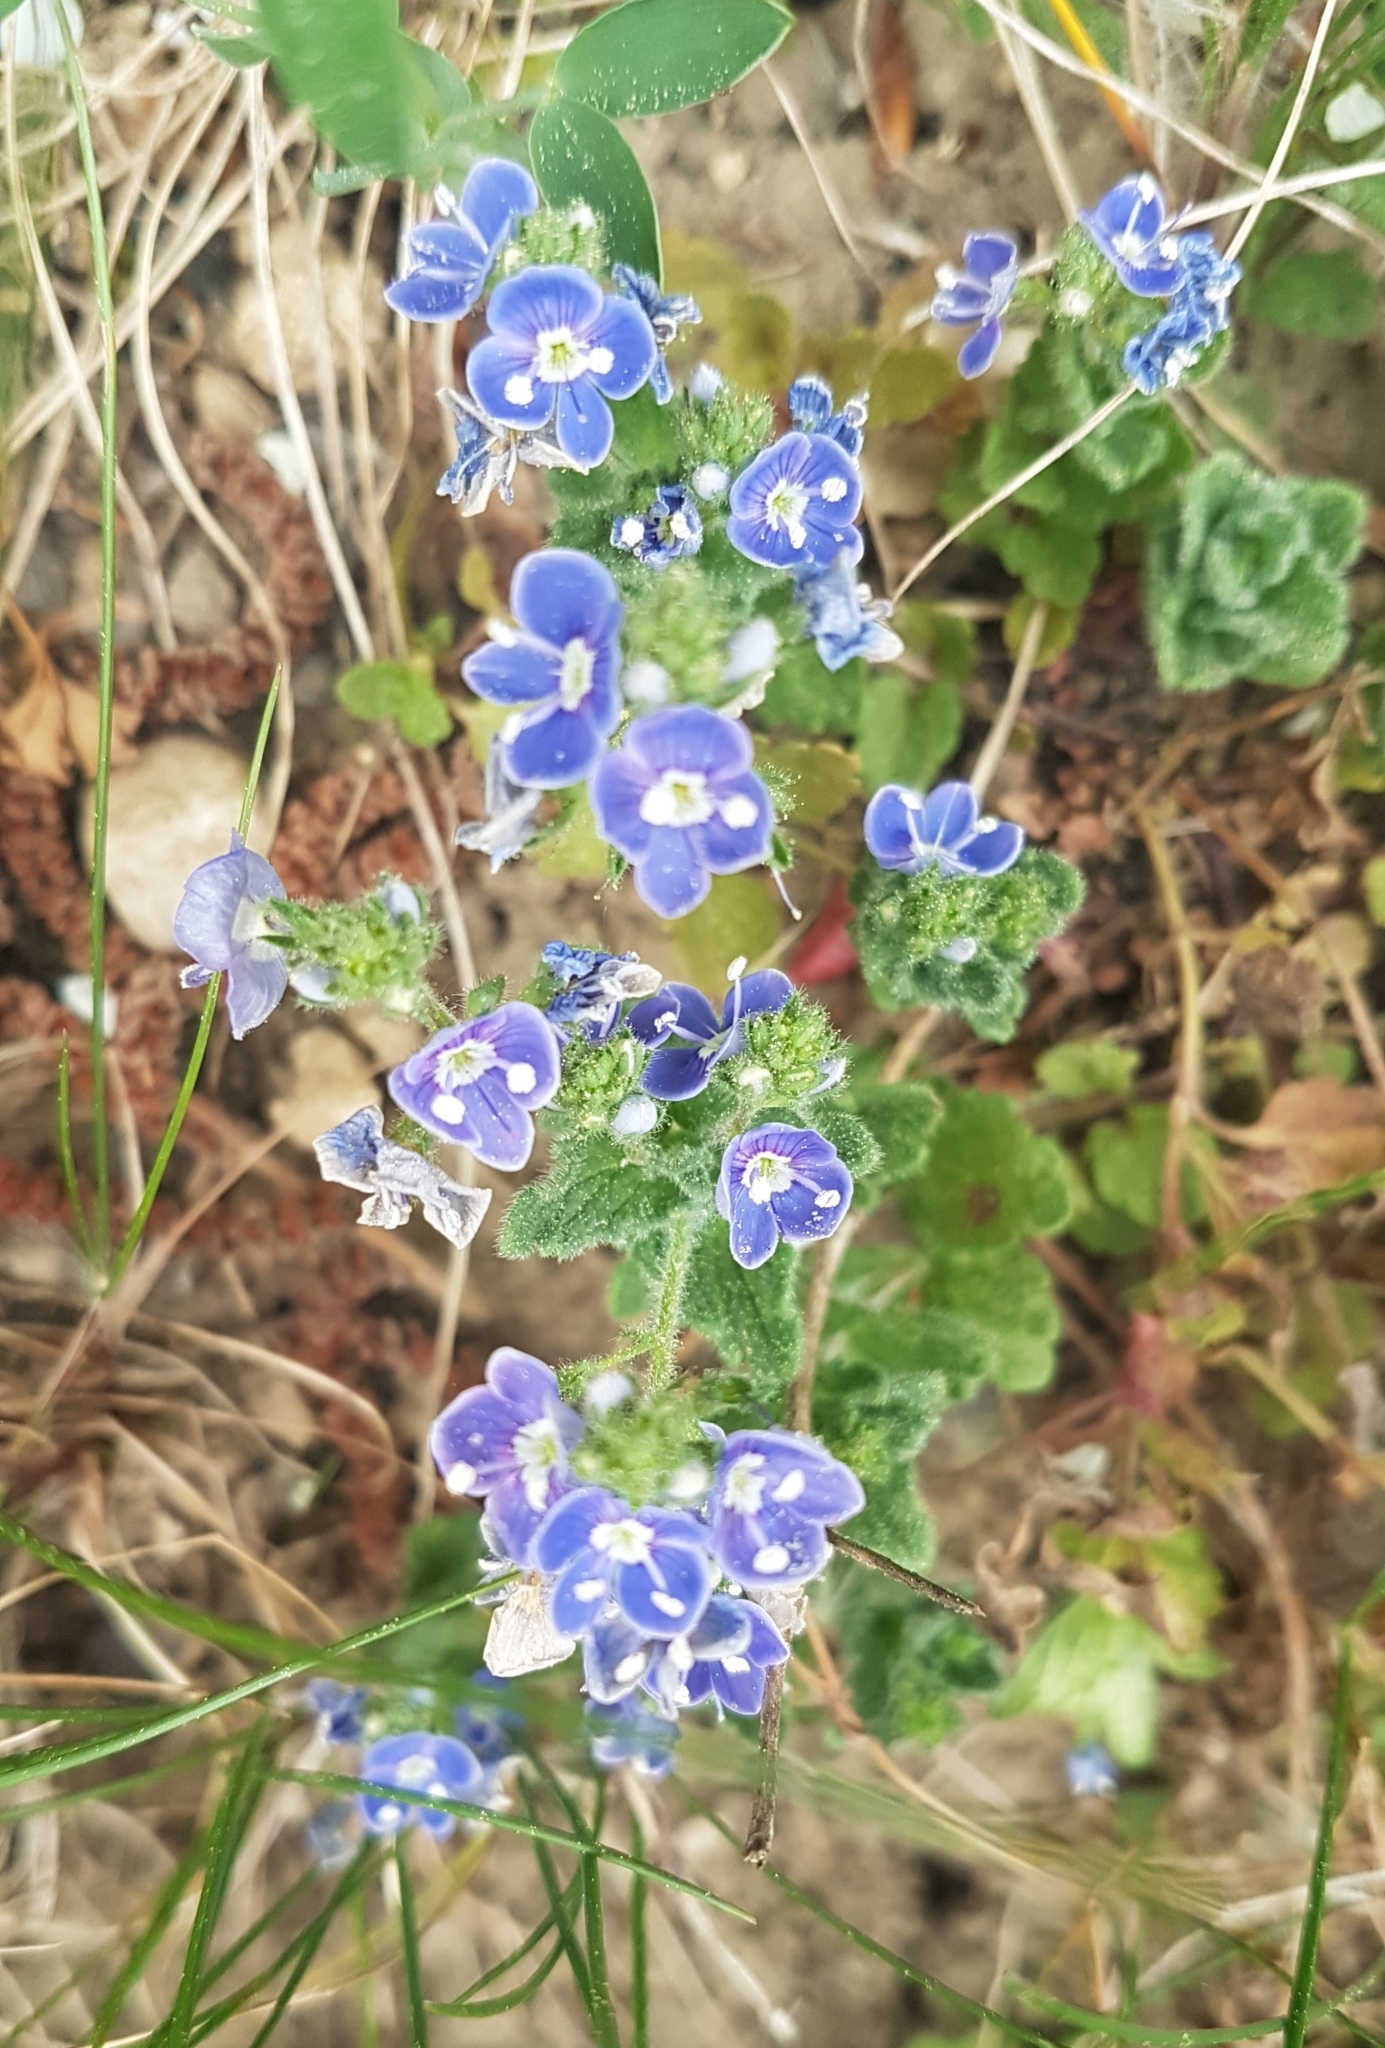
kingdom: Plantae
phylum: Tracheophyta
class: Magnoliopsida
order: Lamiales
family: Plantaginaceae
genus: Veronica
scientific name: Veronica chamaedrys
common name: Germander speedwell
